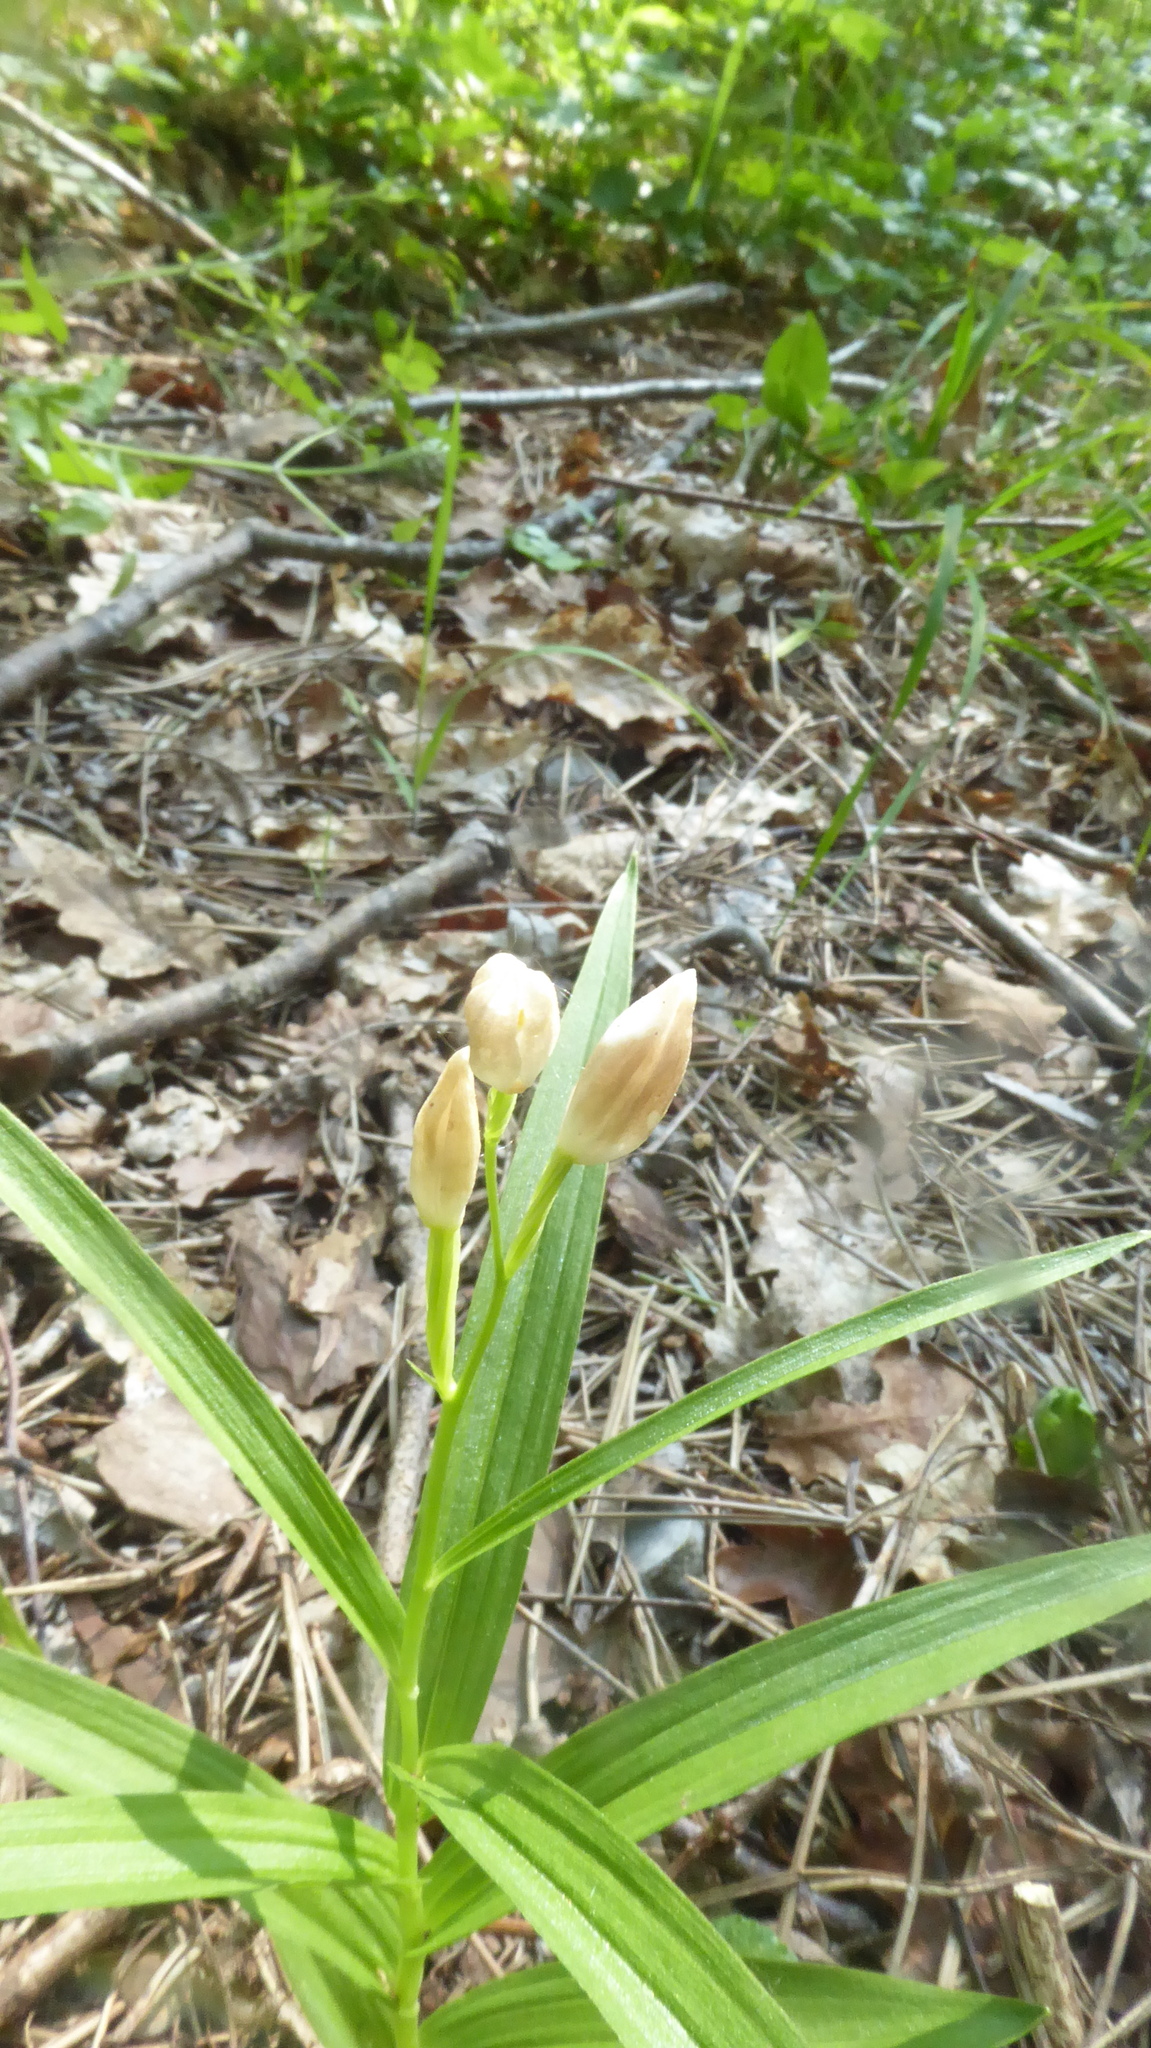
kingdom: Plantae
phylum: Tracheophyta
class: Liliopsida
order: Asparagales
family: Orchidaceae
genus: Cephalanthera
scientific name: Cephalanthera longifolia
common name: Narrow-leaved helleborine
